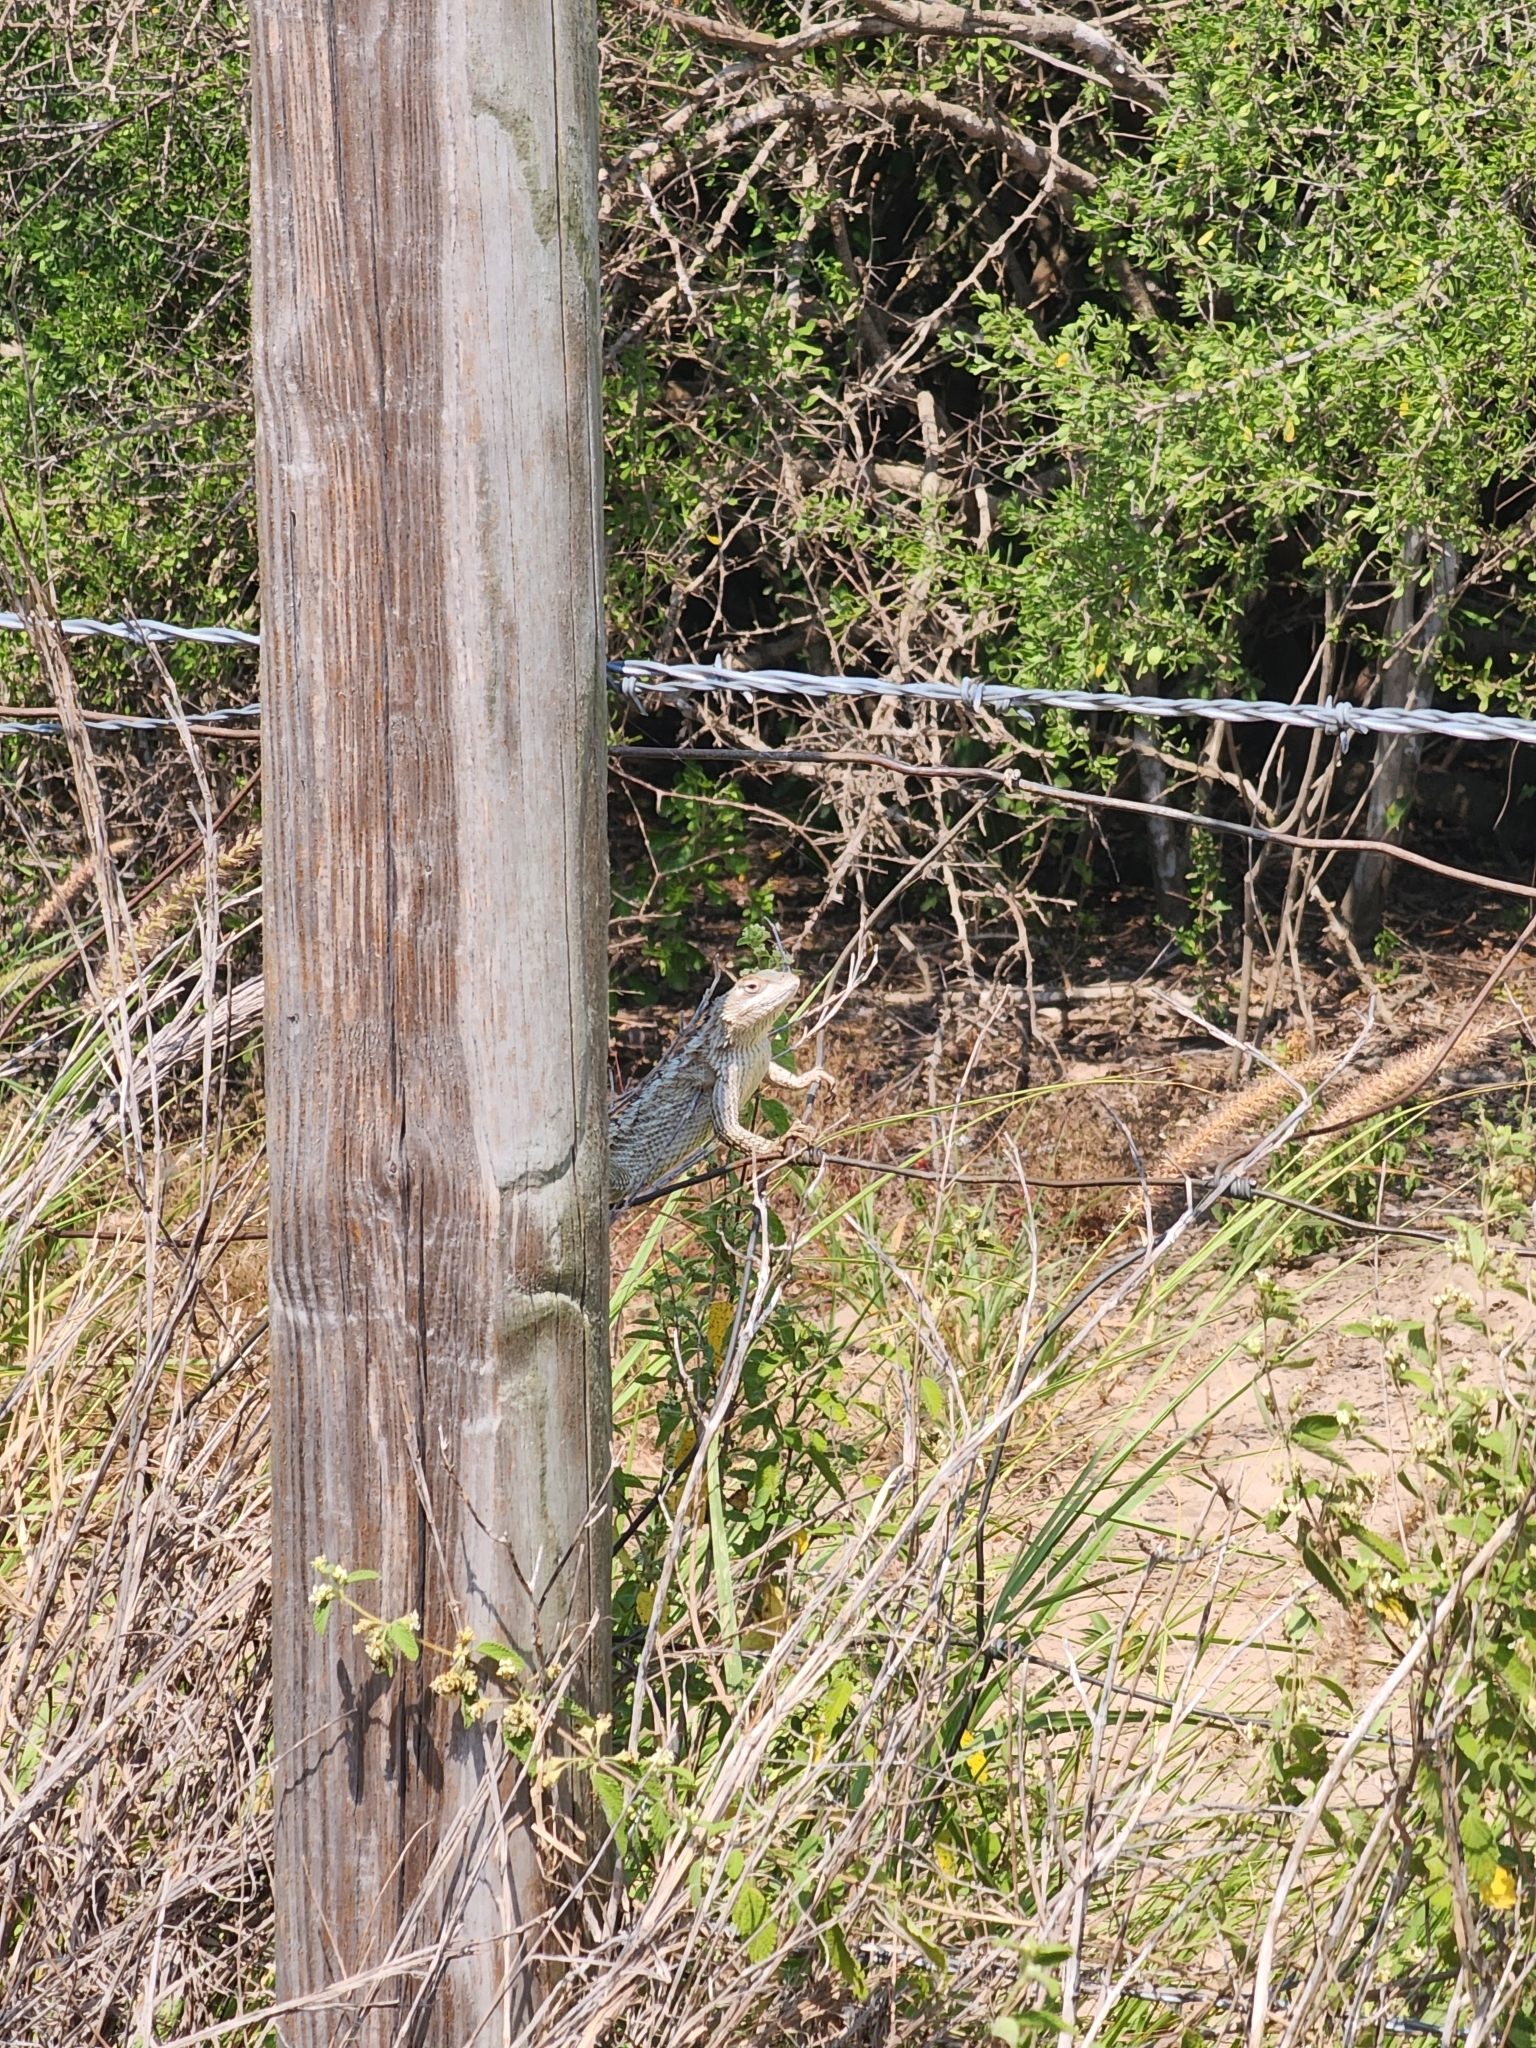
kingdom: Animalia
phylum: Chordata
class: Squamata
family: Phrynosomatidae
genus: Sceloporus
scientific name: Sceloporus olivaceus
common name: Texas spiny lizard
